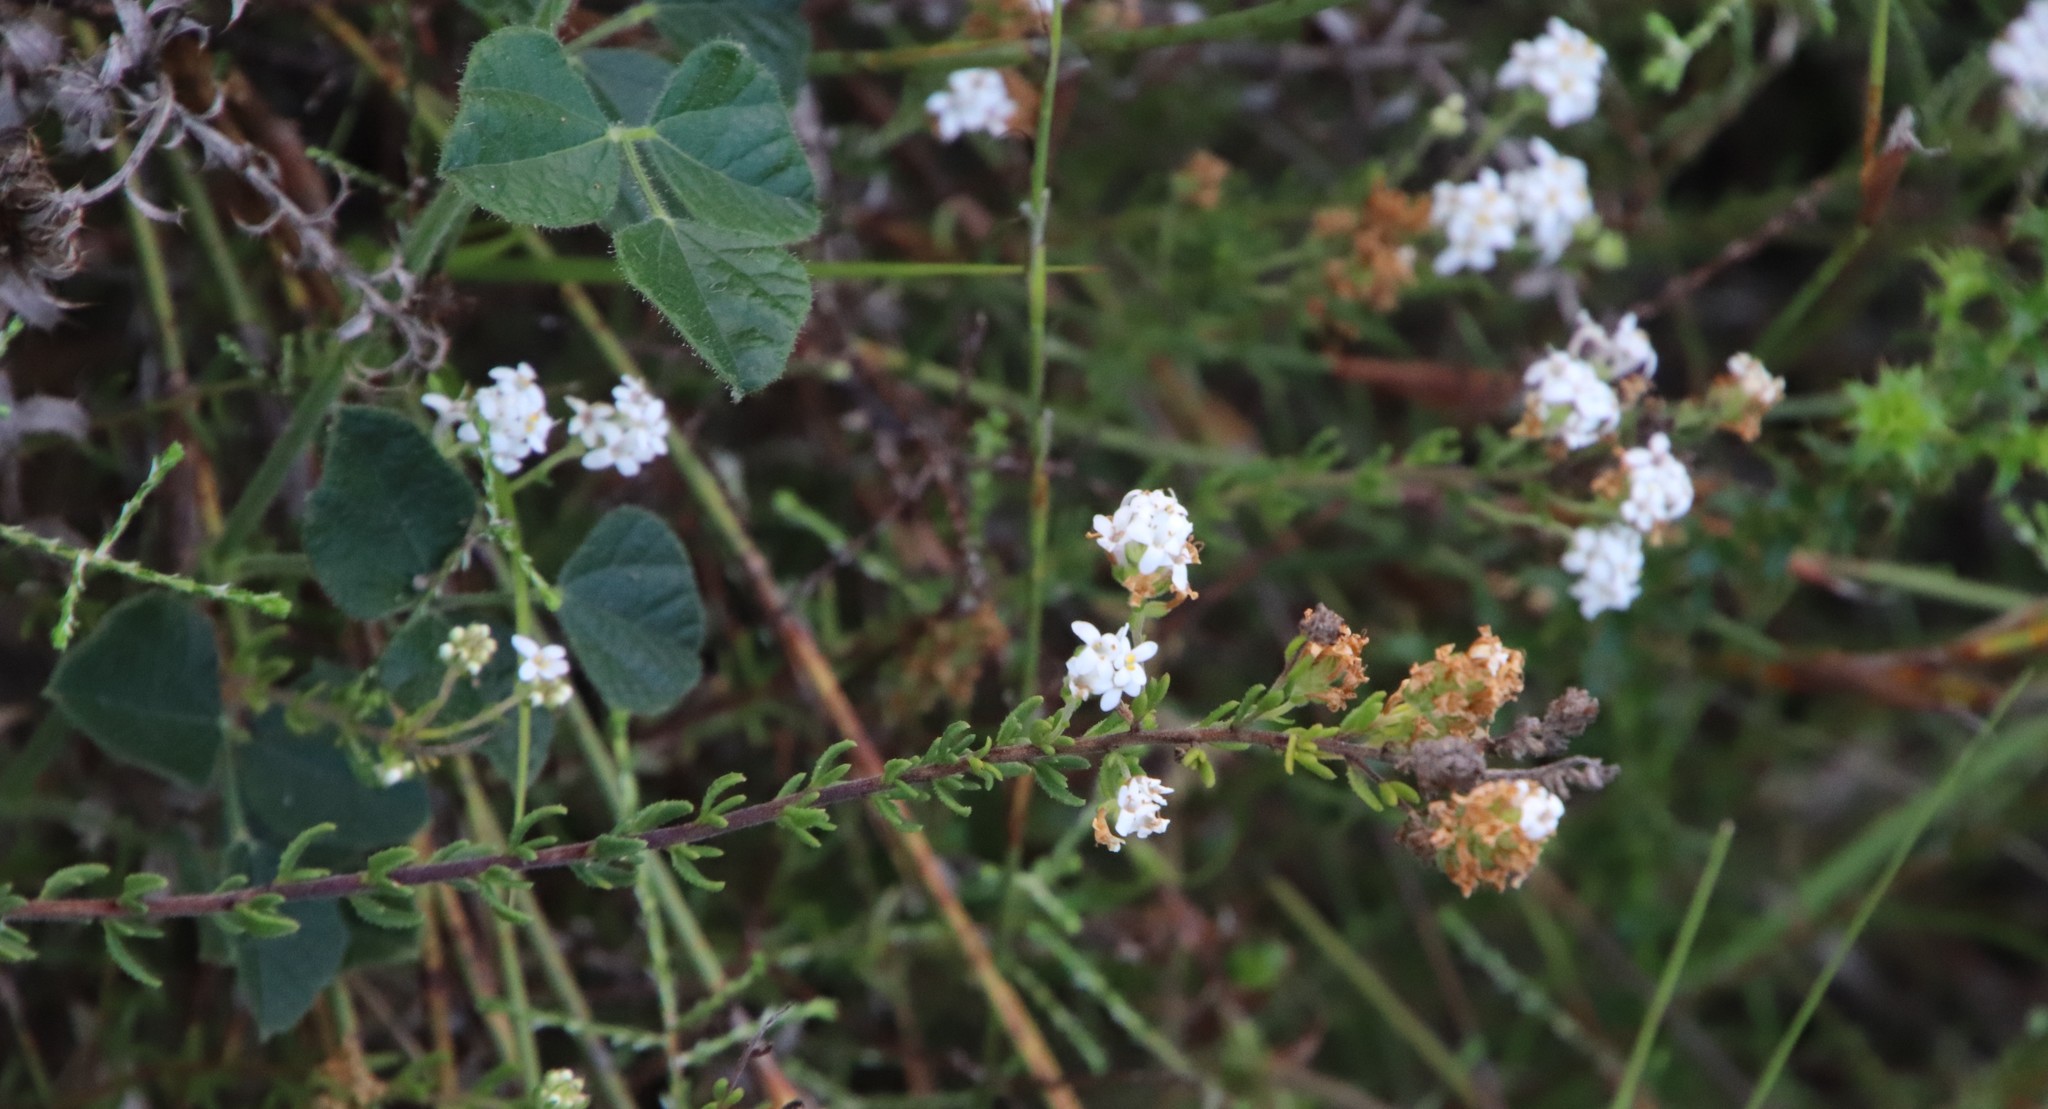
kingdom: Plantae
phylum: Tracheophyta
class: Magnoliopsida
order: Lamiales
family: Scrophulariaceae
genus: Selago
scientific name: Selago levynsiae
